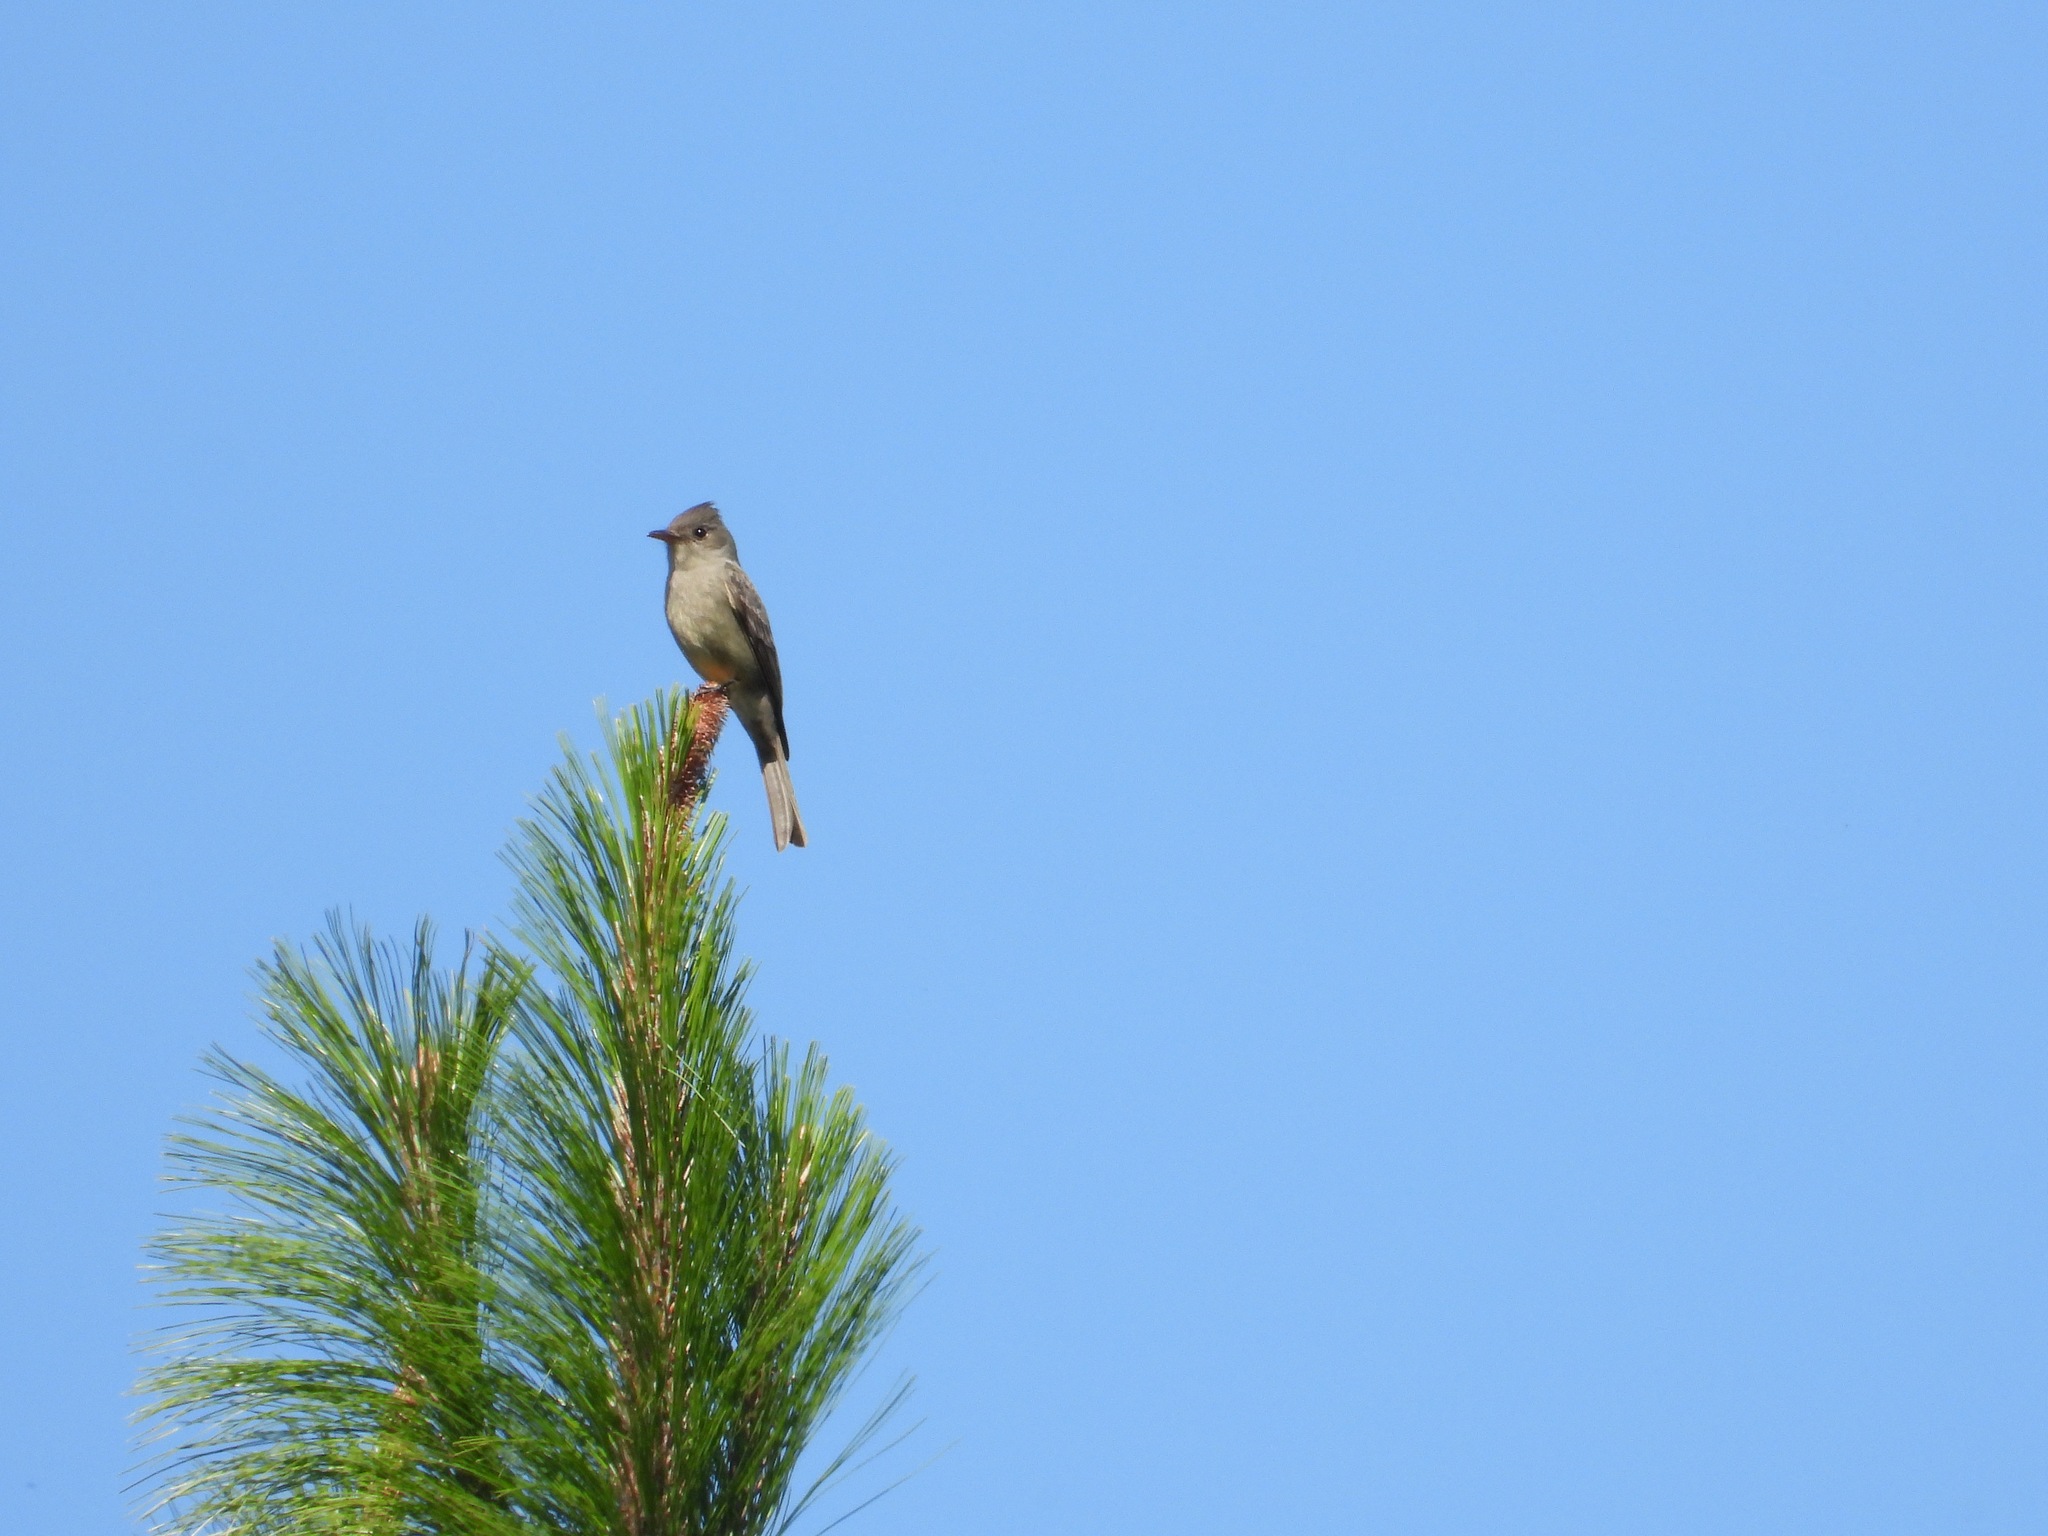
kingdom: Animalia
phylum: Chordata
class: Aves
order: Passeriformes
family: Tyrannidae
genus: Contopus
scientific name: Contopus pertinax
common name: Greater pewee
